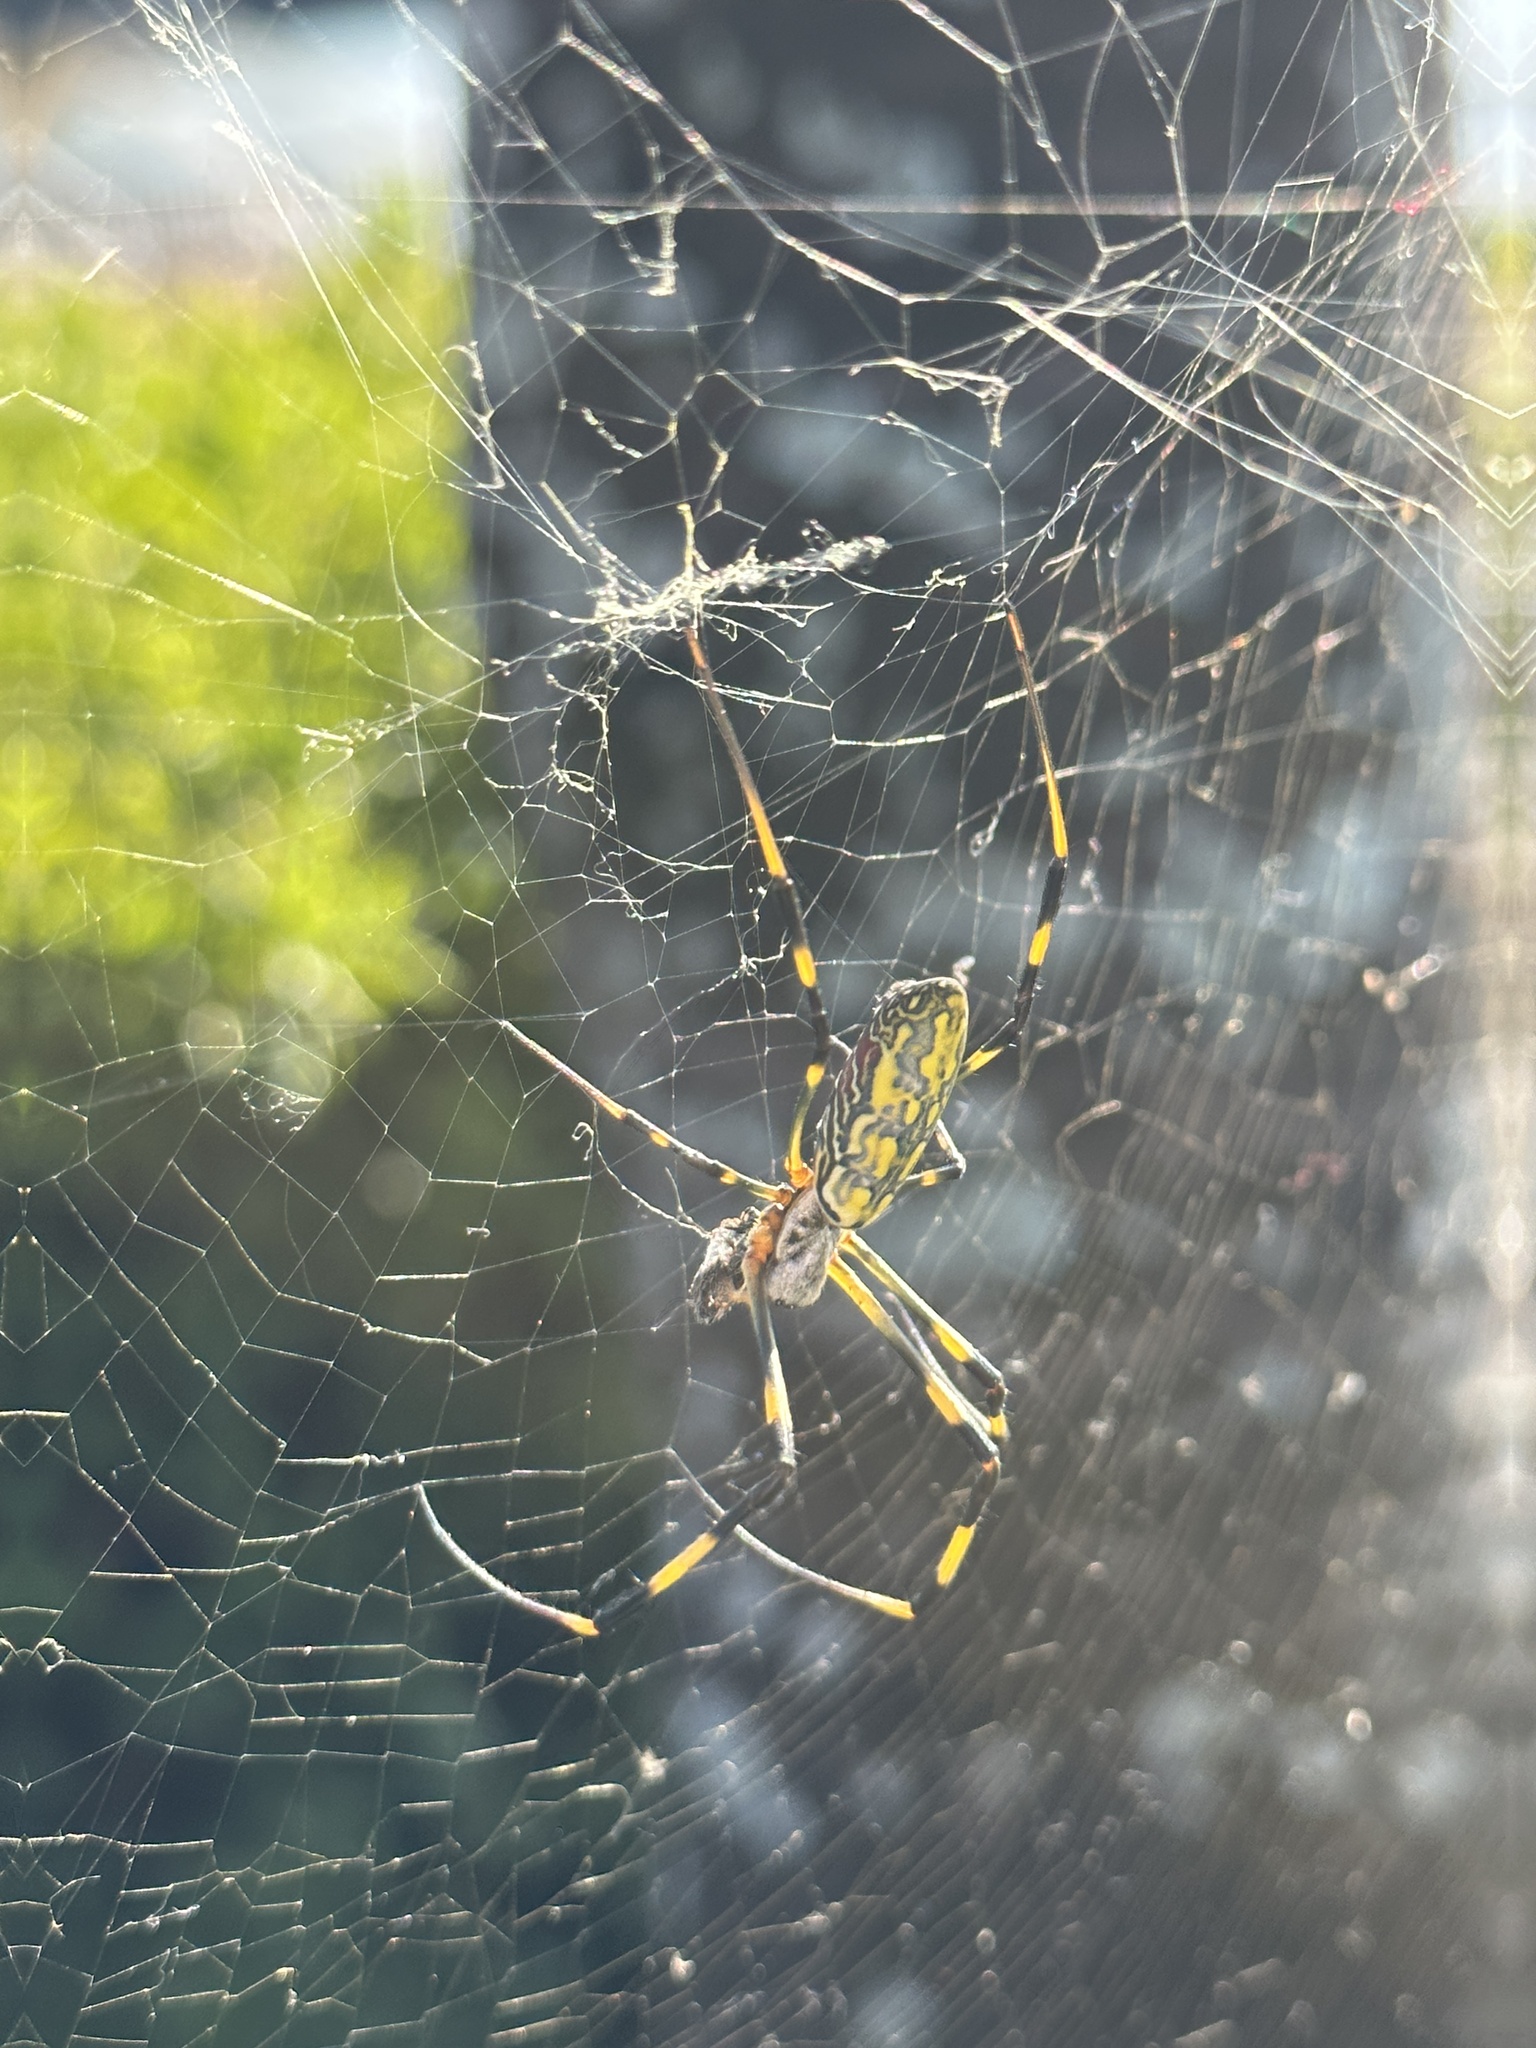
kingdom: Animalia
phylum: Arthropoda
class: Arachnida
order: Araneae
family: Araneidae
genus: Trichonephila
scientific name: Trichonephila clavata
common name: Jorō spider
